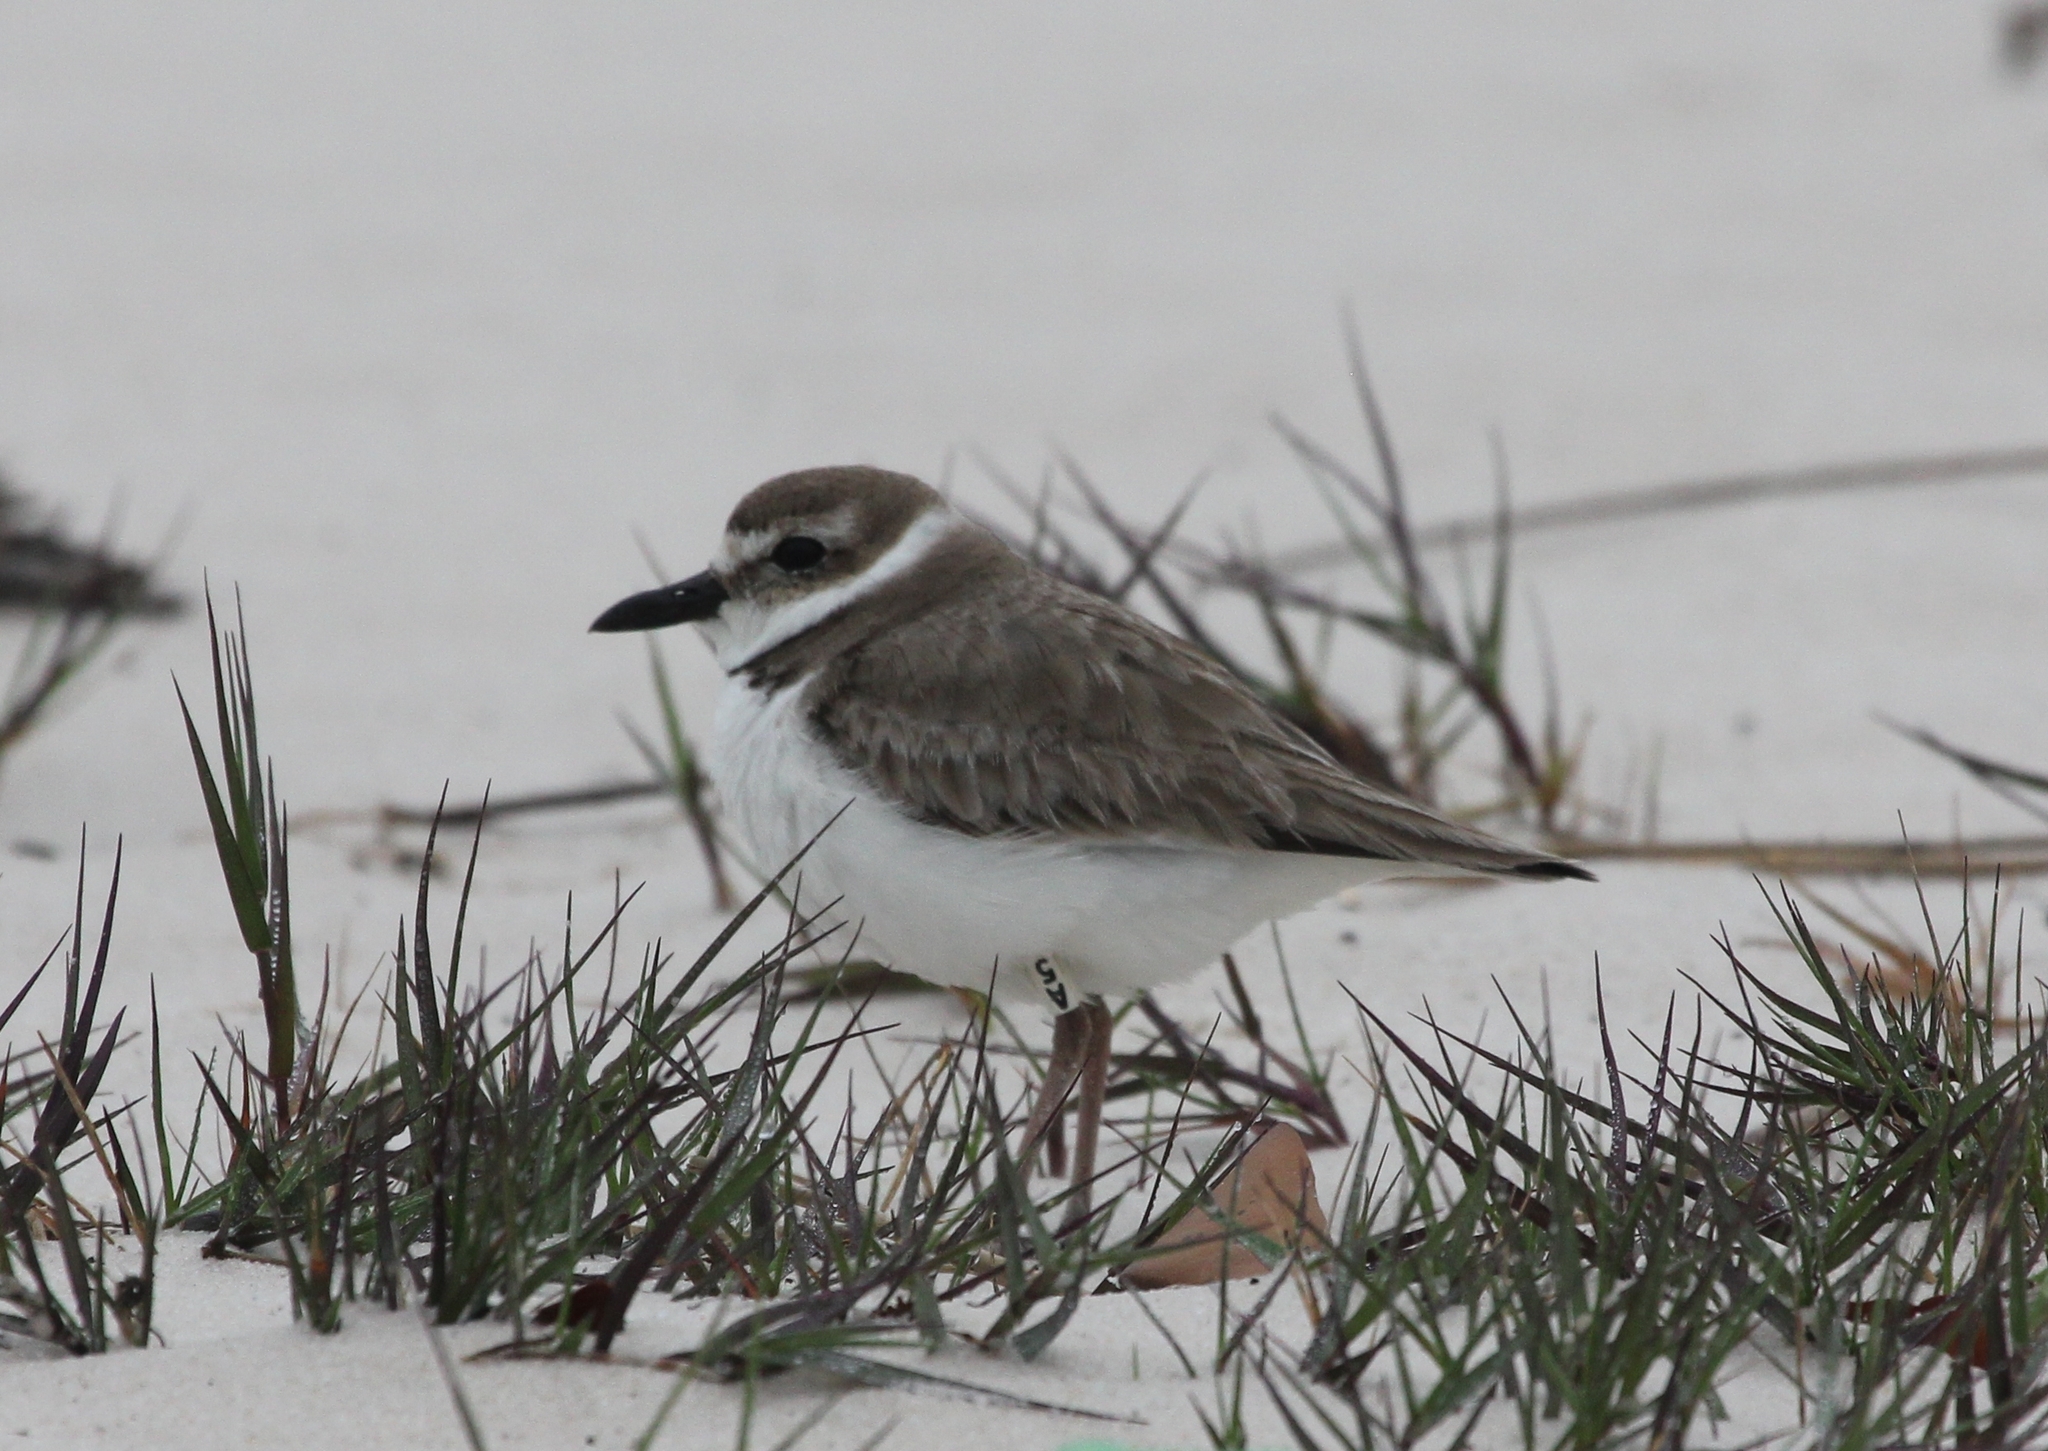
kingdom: Animalia
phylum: Chordata
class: Aves
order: Charadriiformes
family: Charadriidae
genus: Anarhynchus
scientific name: Anarhynchus
